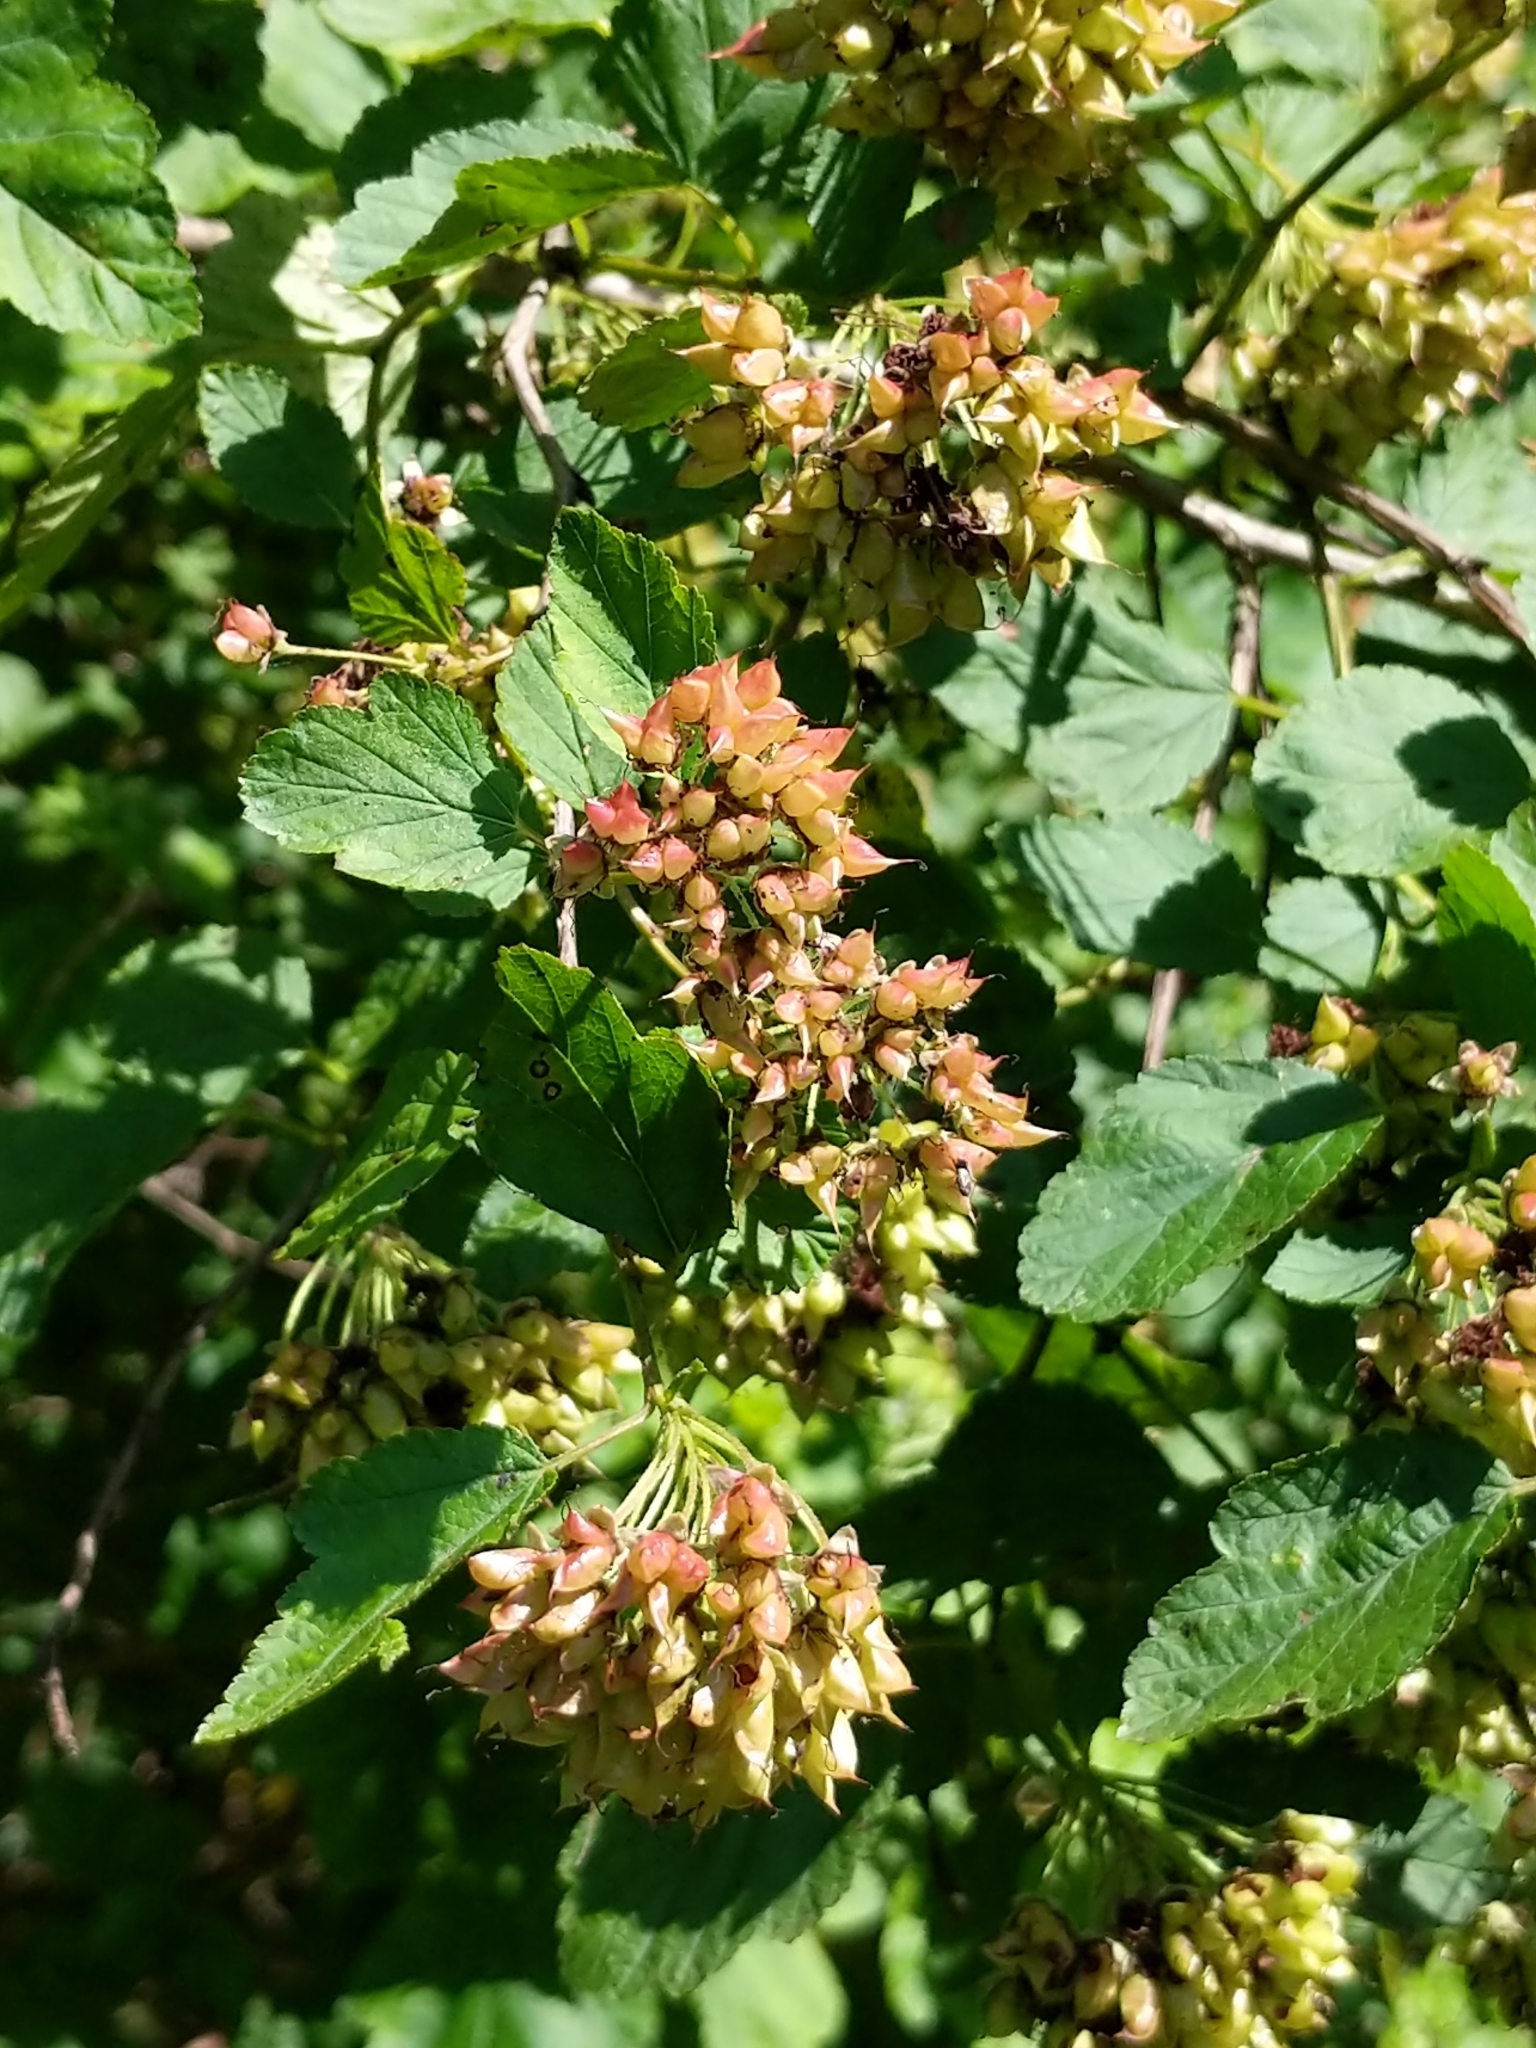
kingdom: Plantae
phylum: Tracheophyta
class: Magnoliopsida
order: Rosales
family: Rosaceae
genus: Physocarpus
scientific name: Physocarpus opulifolius
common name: Ninebark
